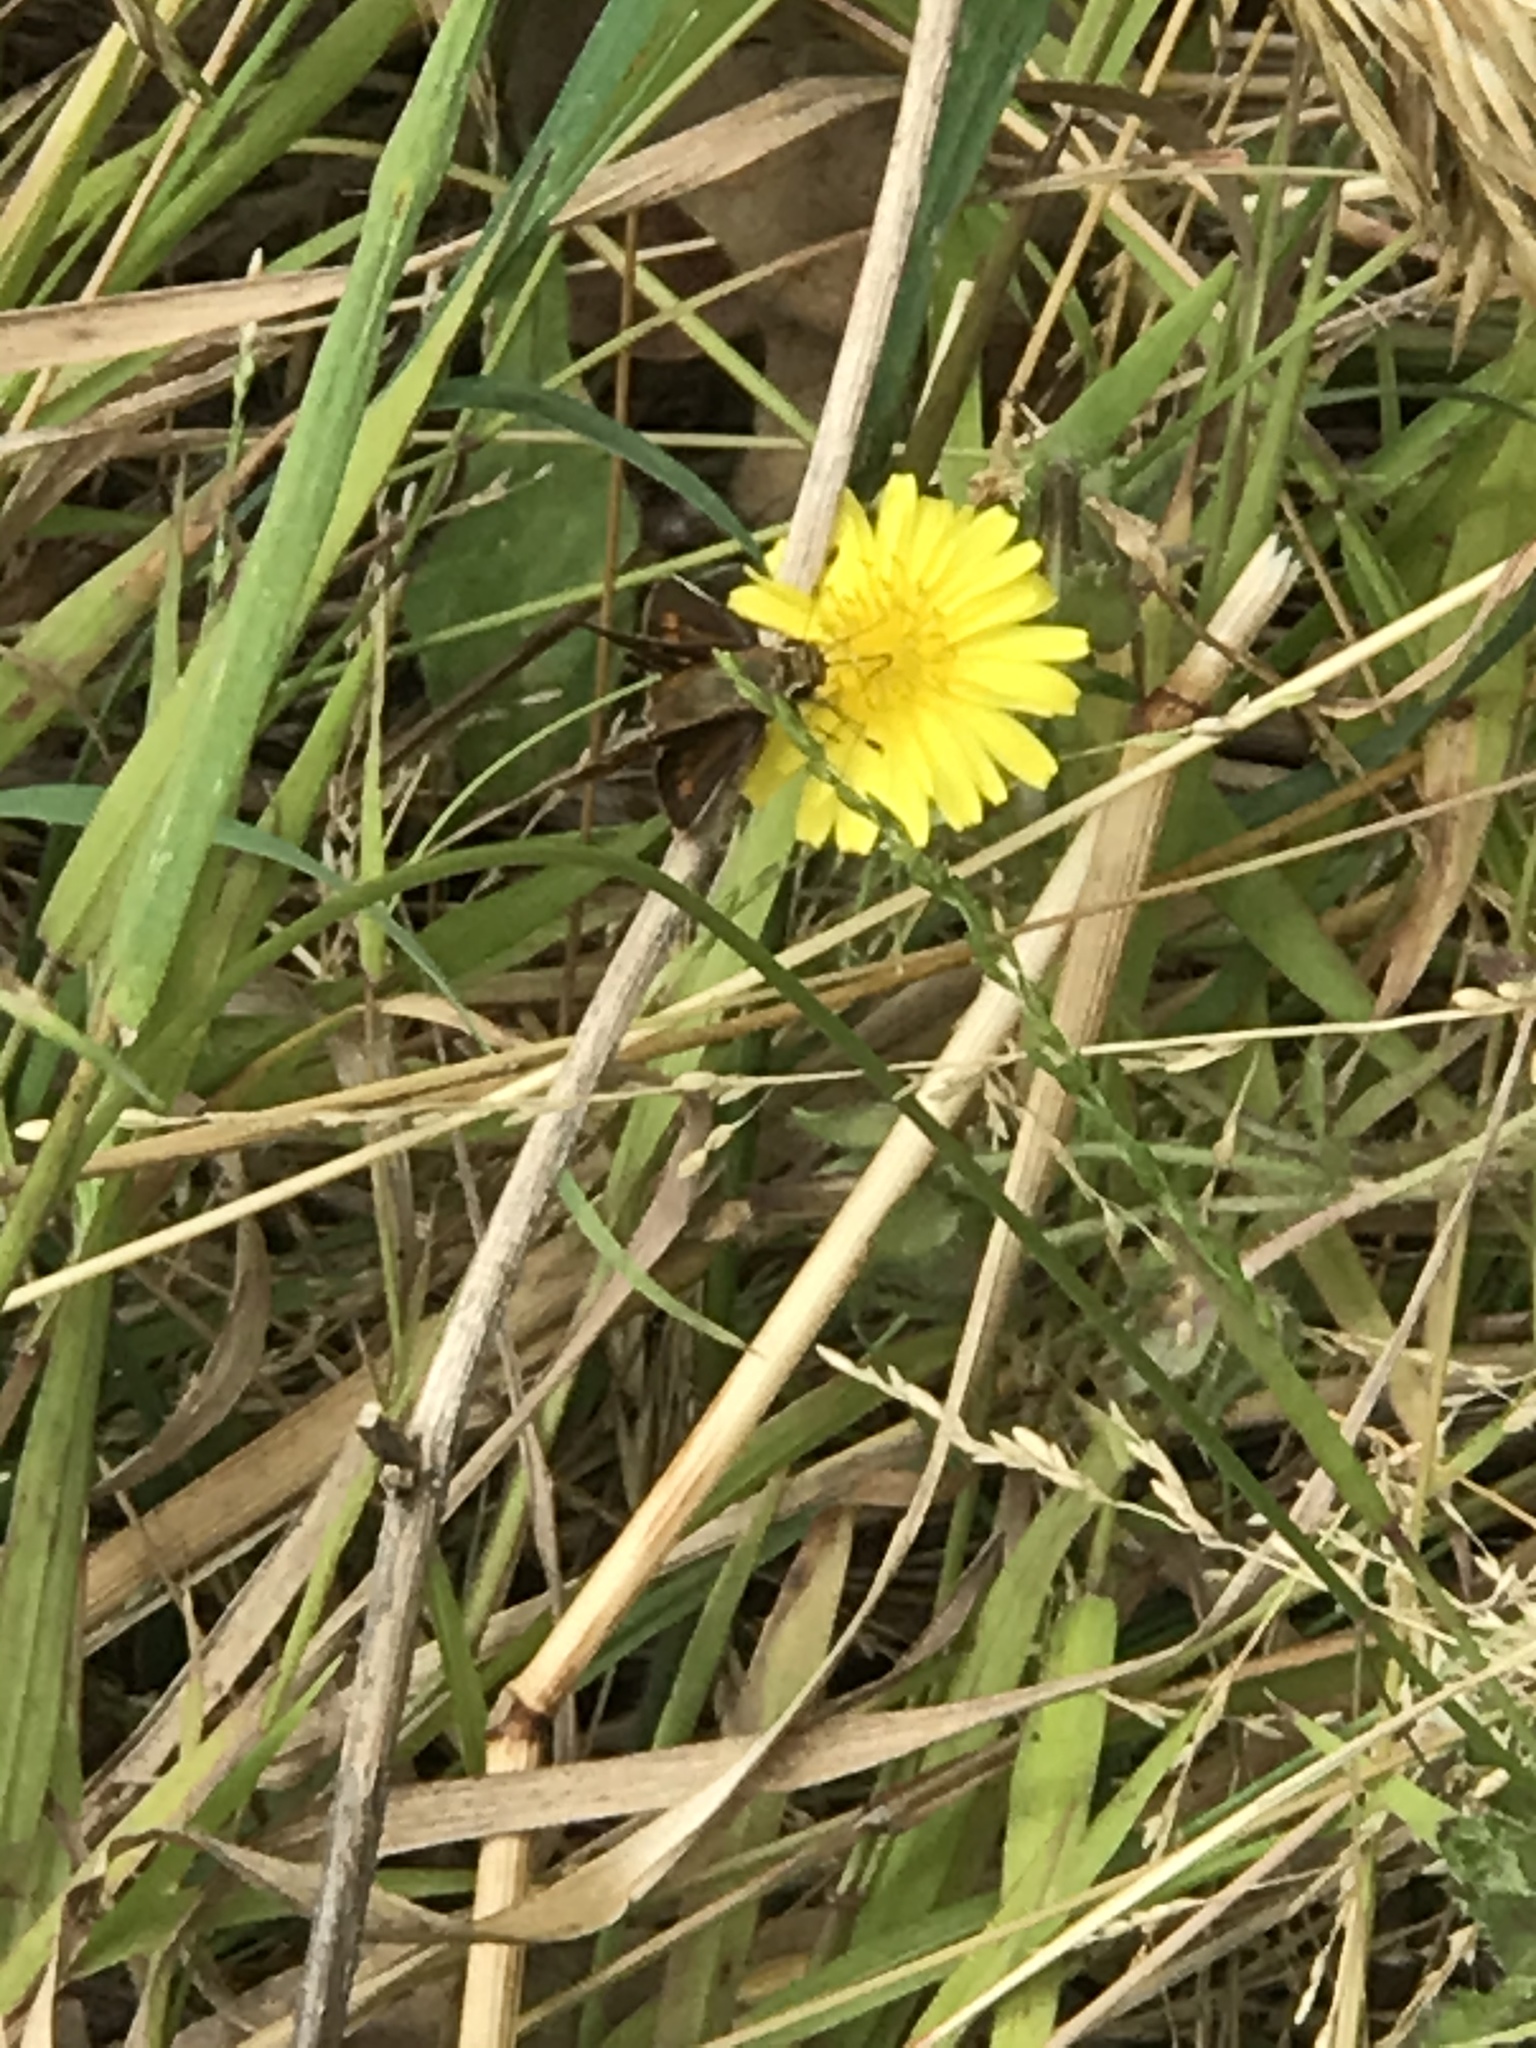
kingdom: Animalia
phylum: Arthropoda
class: Insecta
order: Lepidoptera
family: Hesperiidae
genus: Lon
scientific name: Lon melane
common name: Umber skipper
